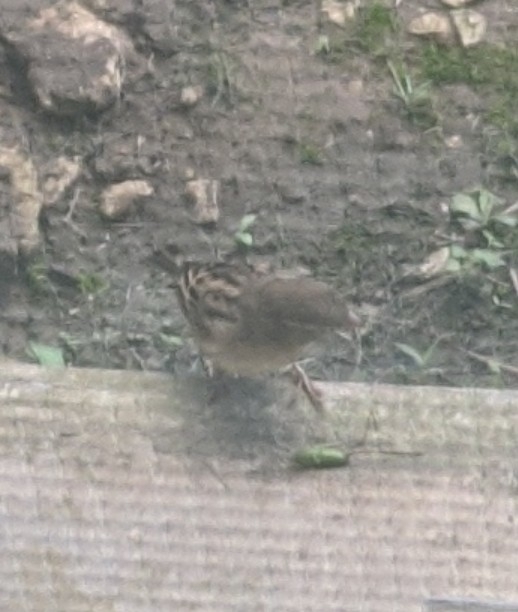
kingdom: Animalia
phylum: Chordata
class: Aves
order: Passeriformes
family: Passeridae
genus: Passer
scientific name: Passer domesticus
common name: House sparrow
